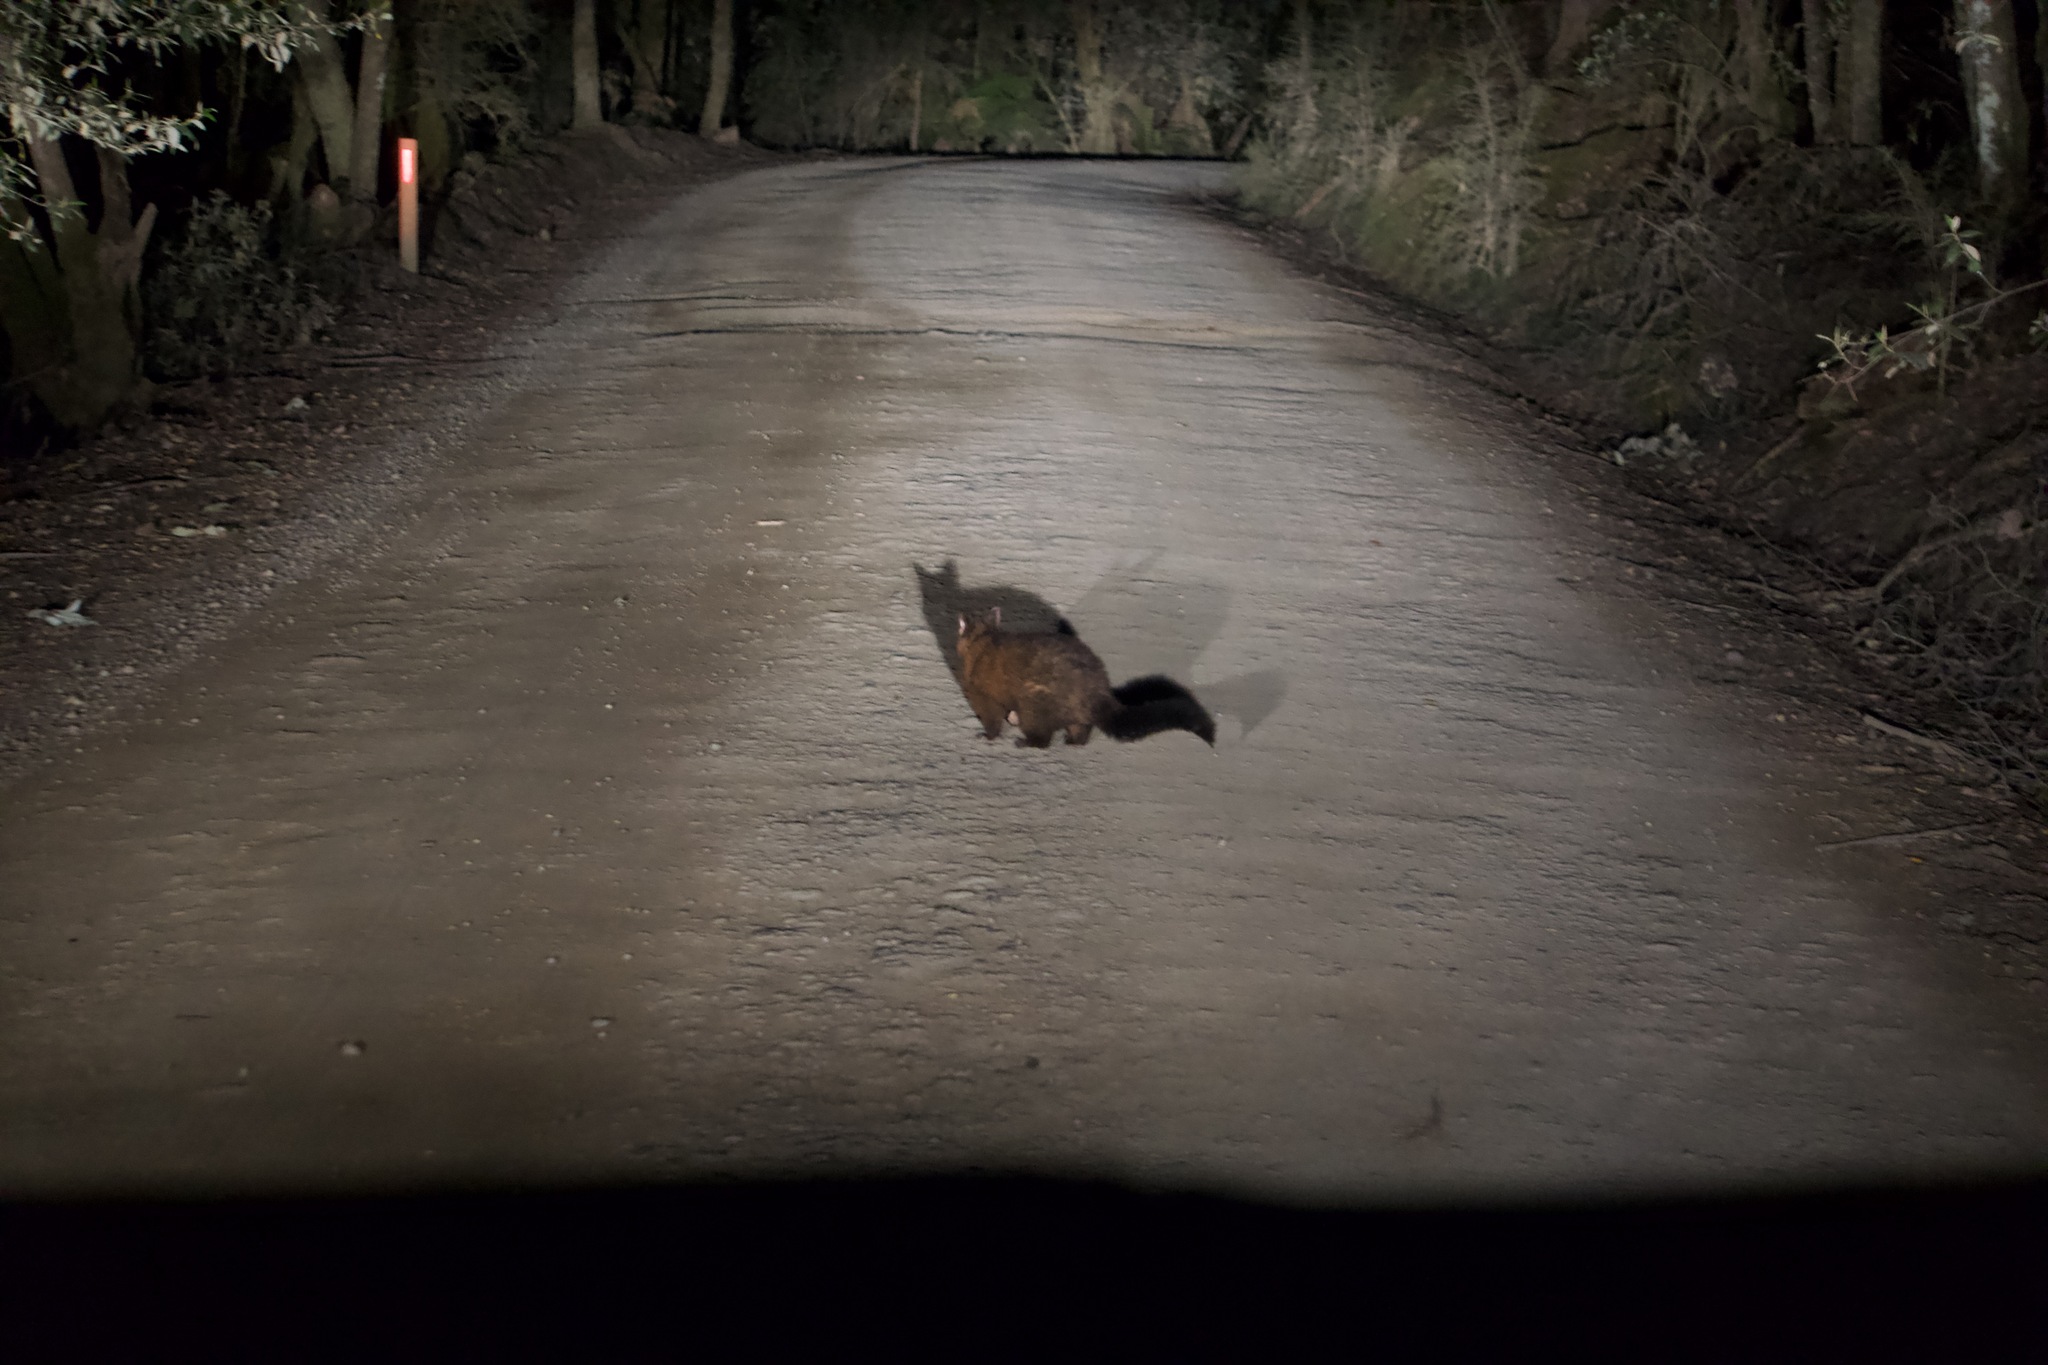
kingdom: Animalia
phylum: Chordata
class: Mammalia
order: Diprotodontia
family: Phalangeridae
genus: Trichosurus
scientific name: Trichosurus vulpecula
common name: Common brushtail
